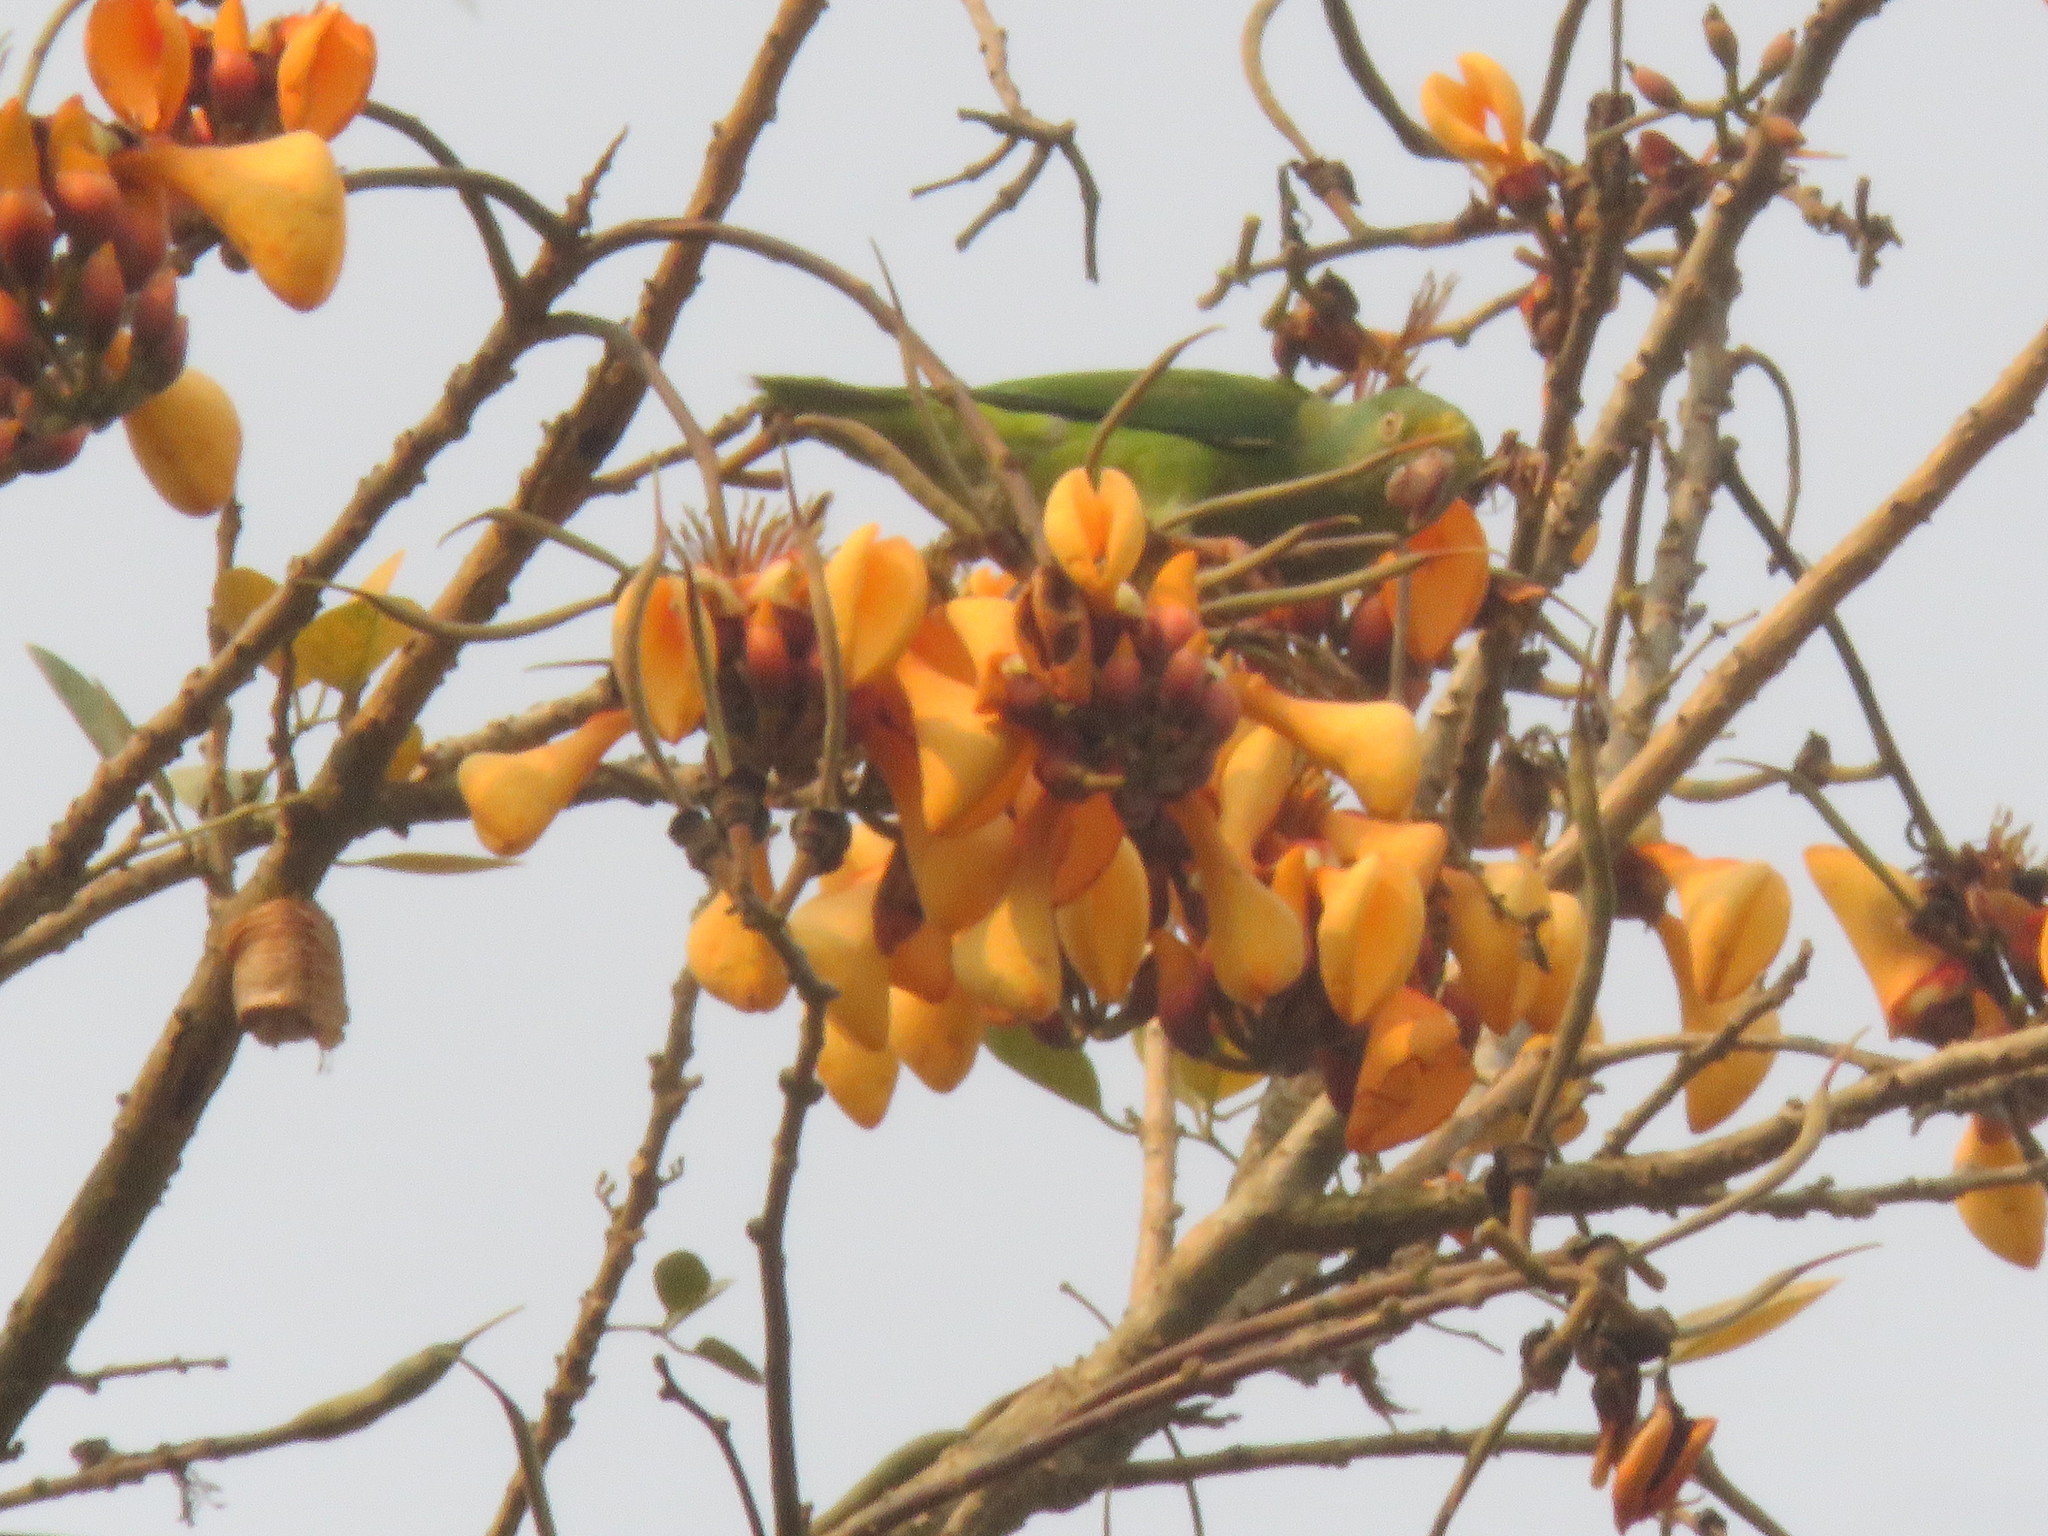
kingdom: Animalia
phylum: Chordata
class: Aves
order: Psittaciformes
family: Psittacidae
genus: Brotogeris
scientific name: Brotogeris sanctithomae
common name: Tui parakeet
